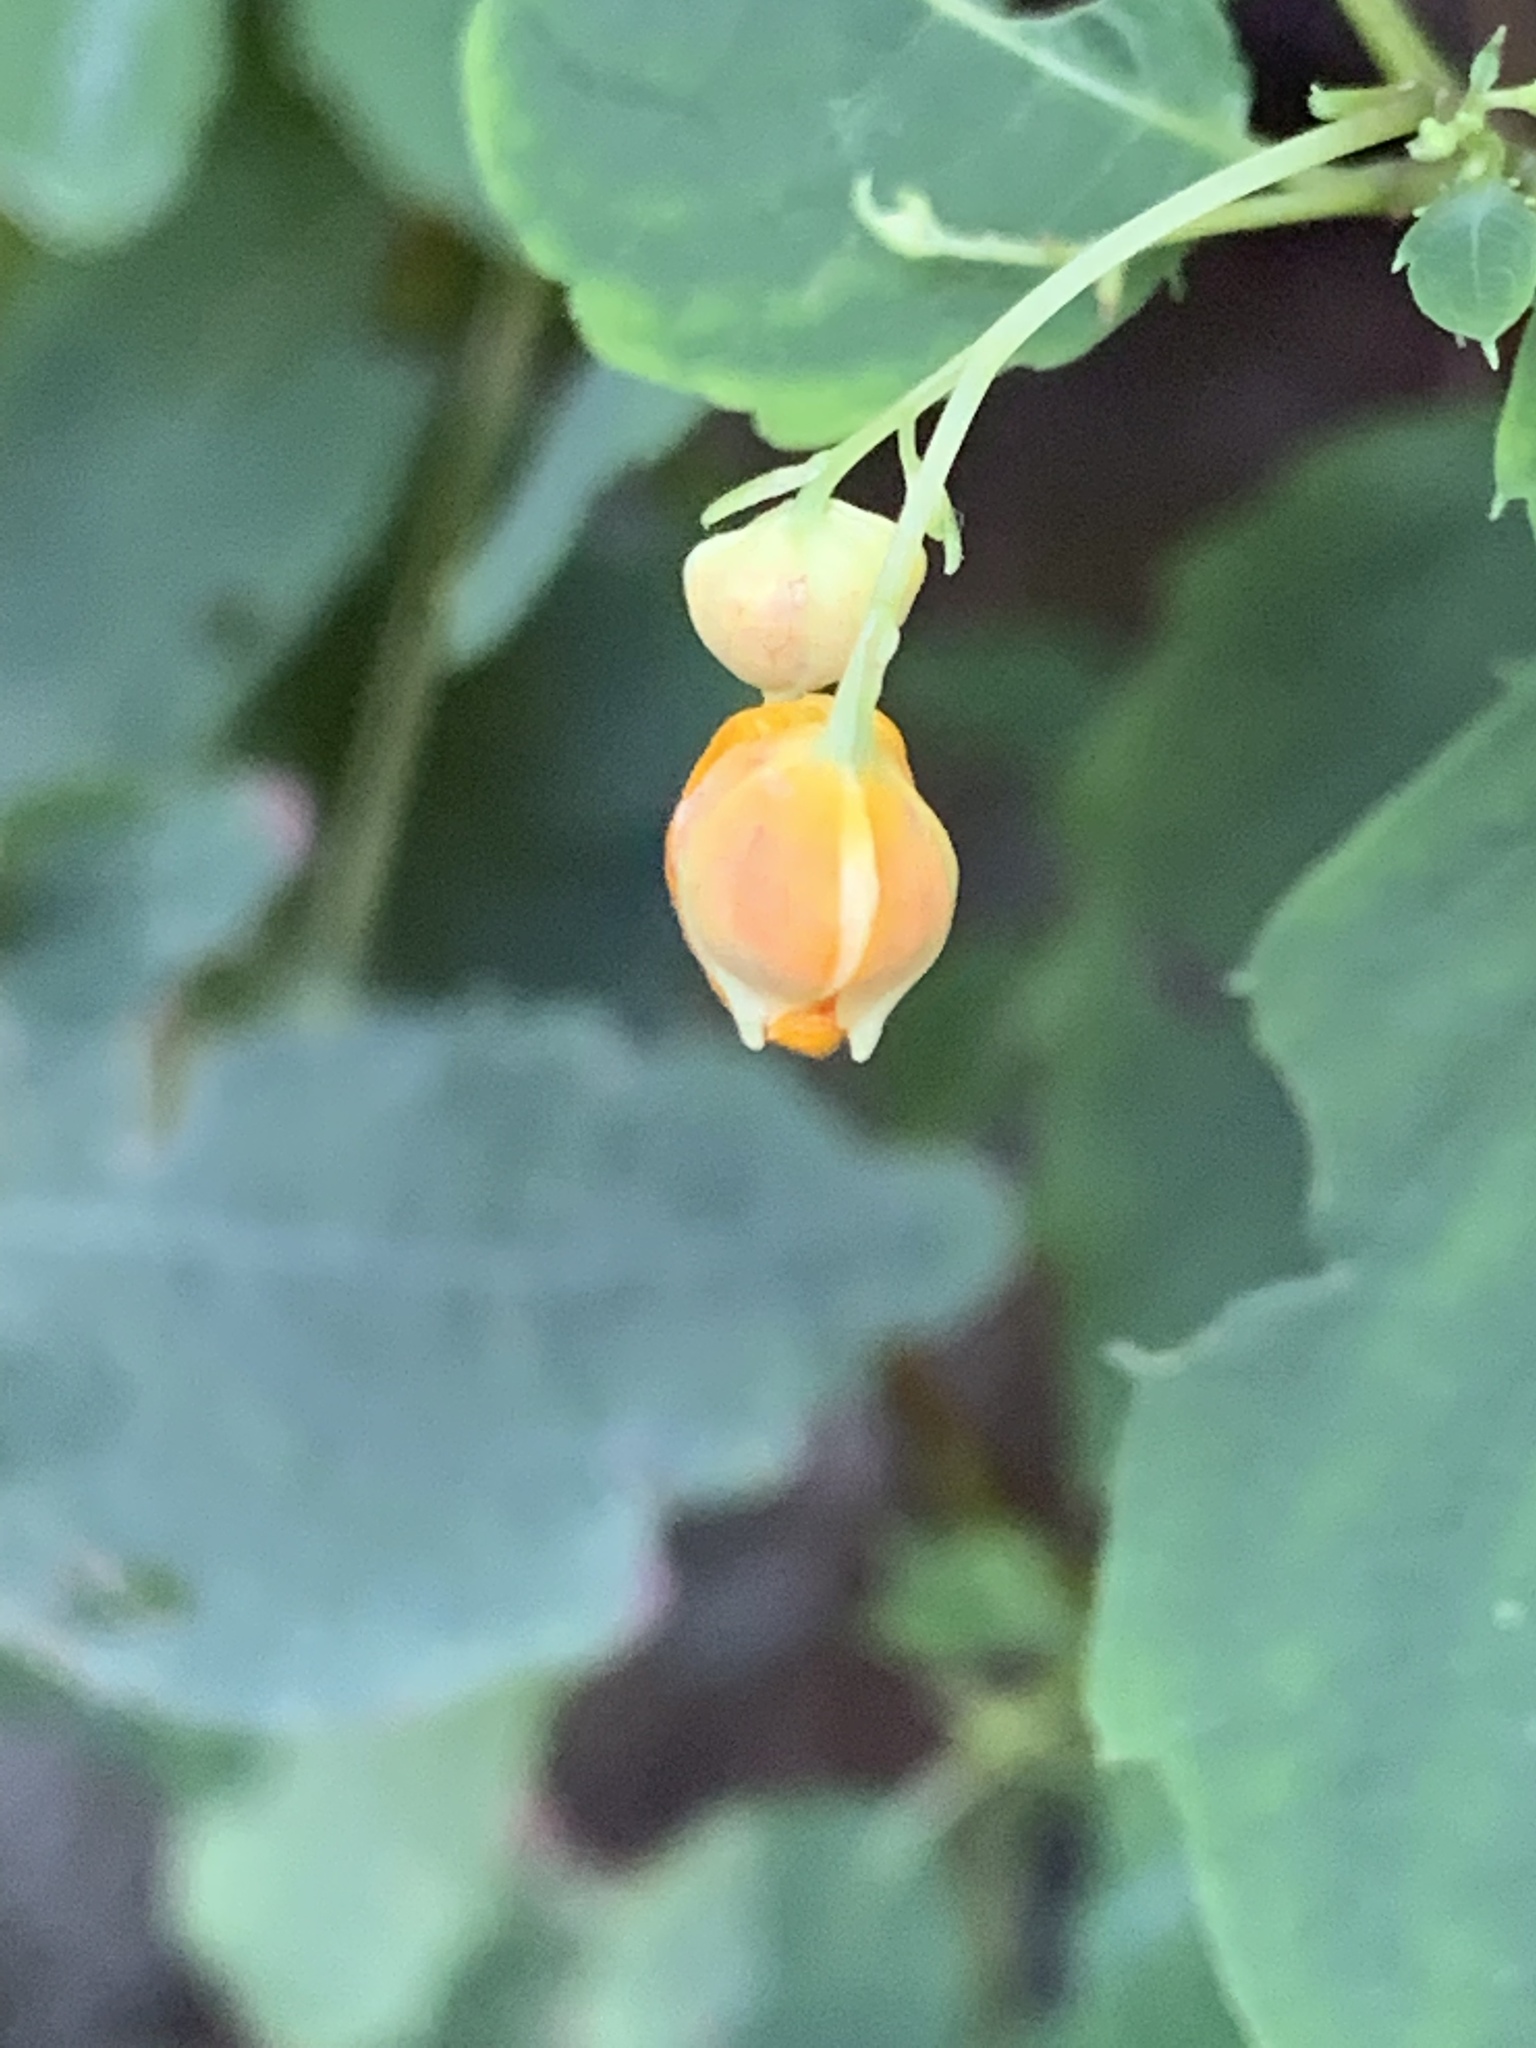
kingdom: Plantae
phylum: Tracheophyta
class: Magnoliopsida
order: Ericales
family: Balsaminaceae
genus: Impatiens
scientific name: Impatiens capensis
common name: Orange balsam
